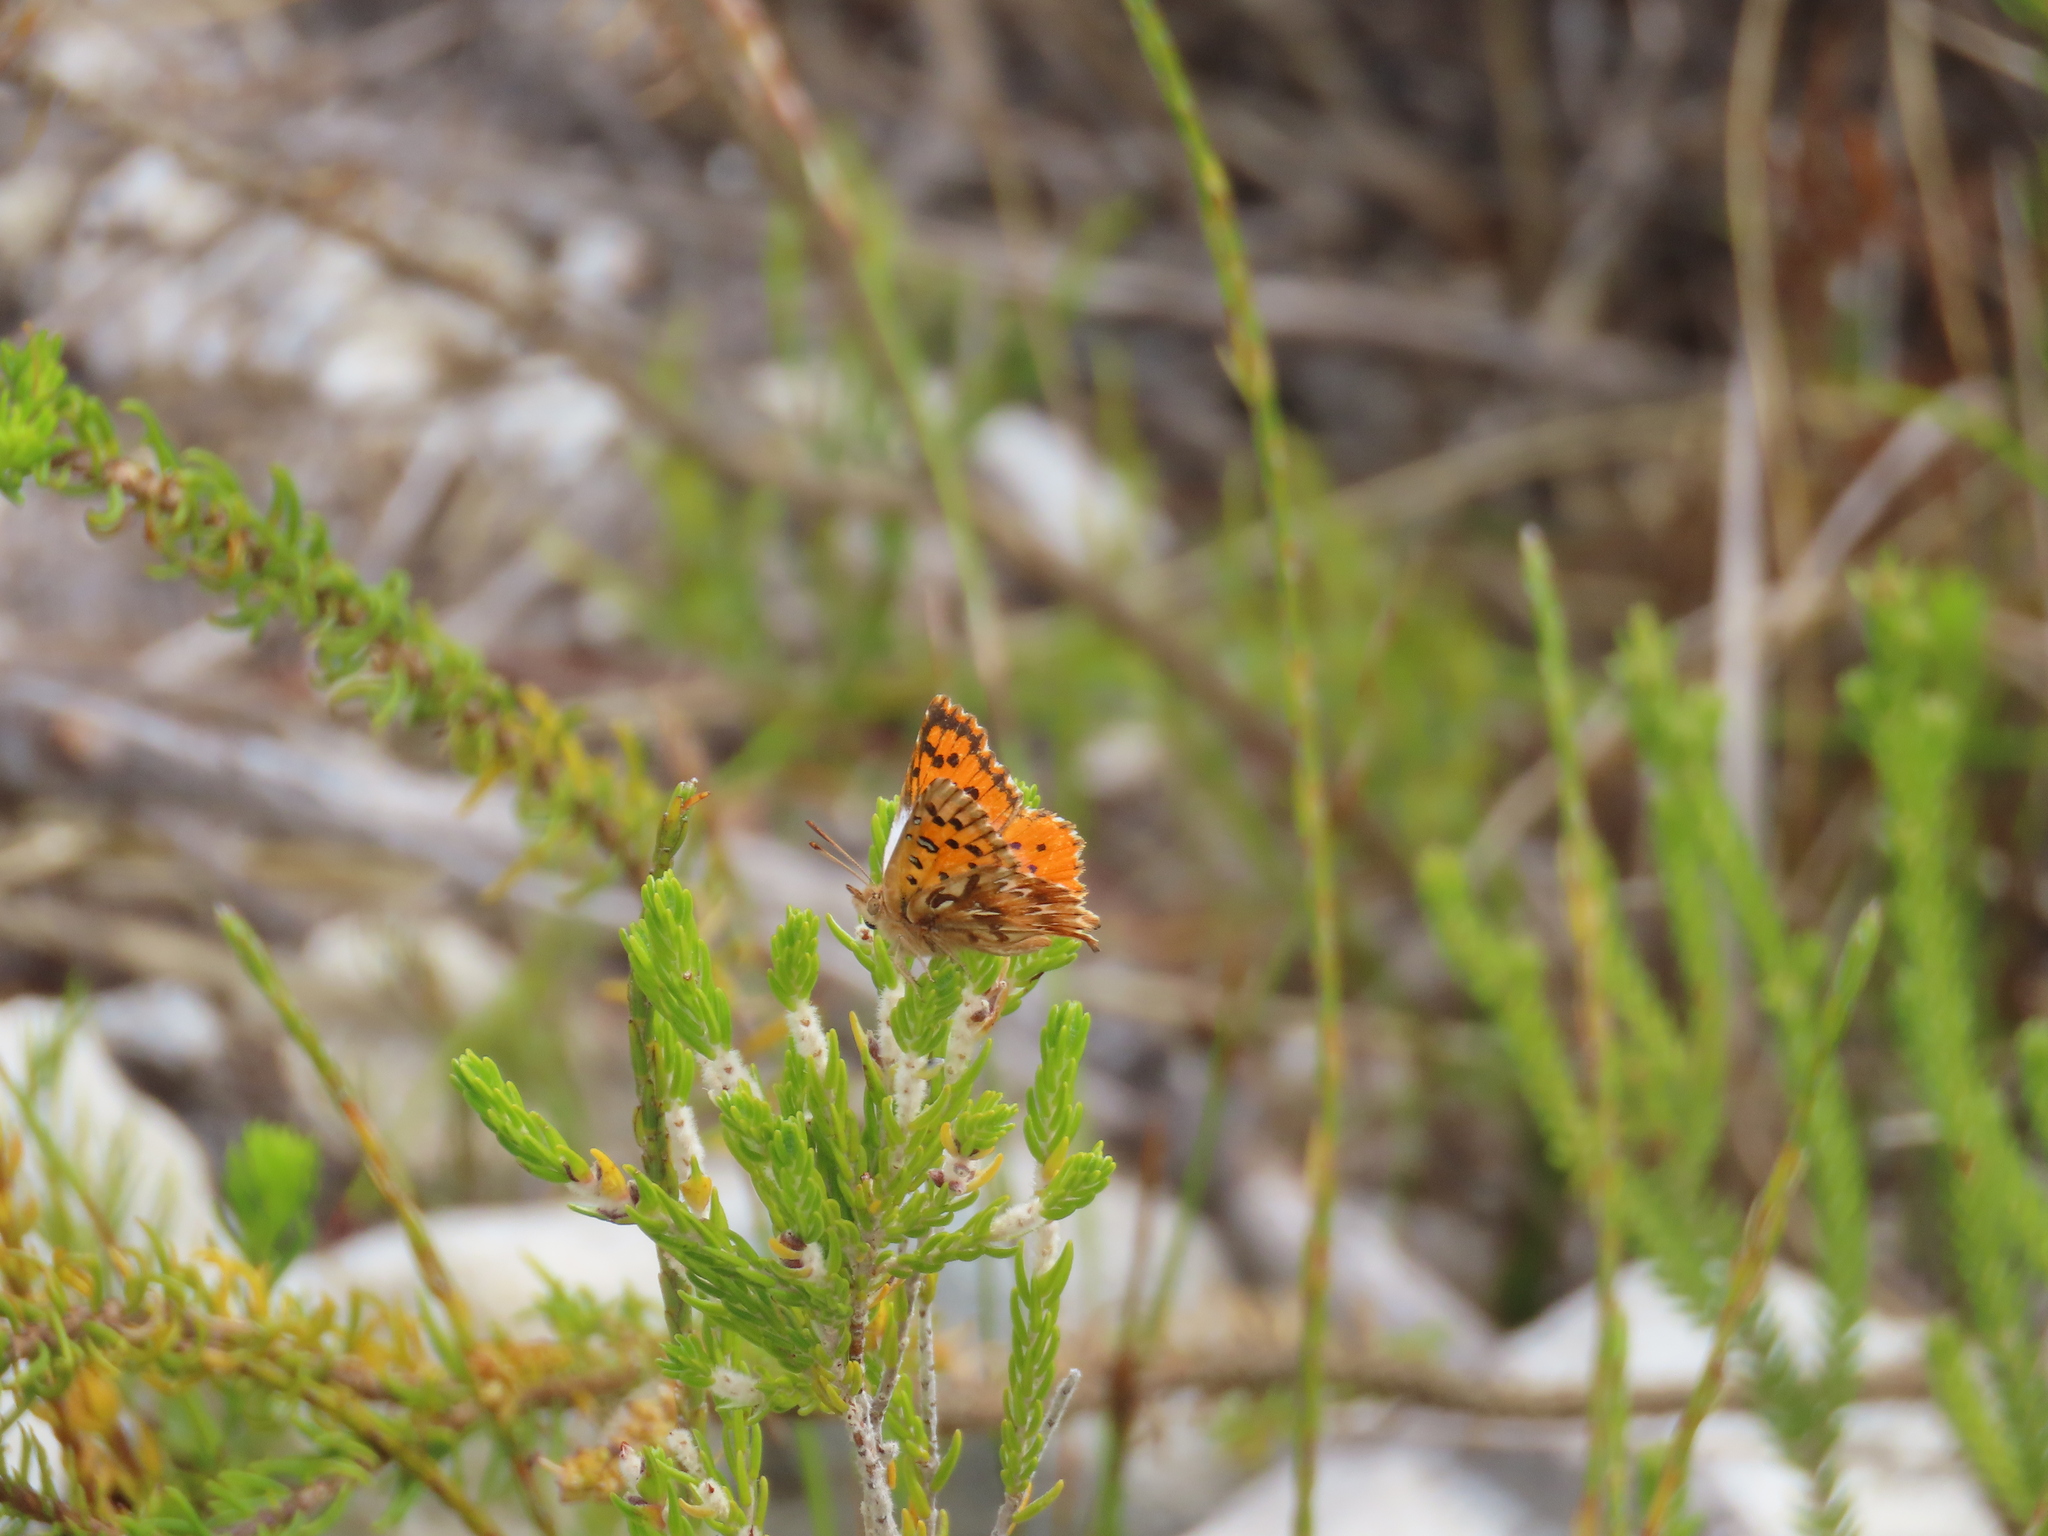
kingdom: Animalia
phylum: Arthropoda
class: Insecta
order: Lepidoptera
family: Lycaenidae
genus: Chrysoritis
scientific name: Chrysoritis thysbe
